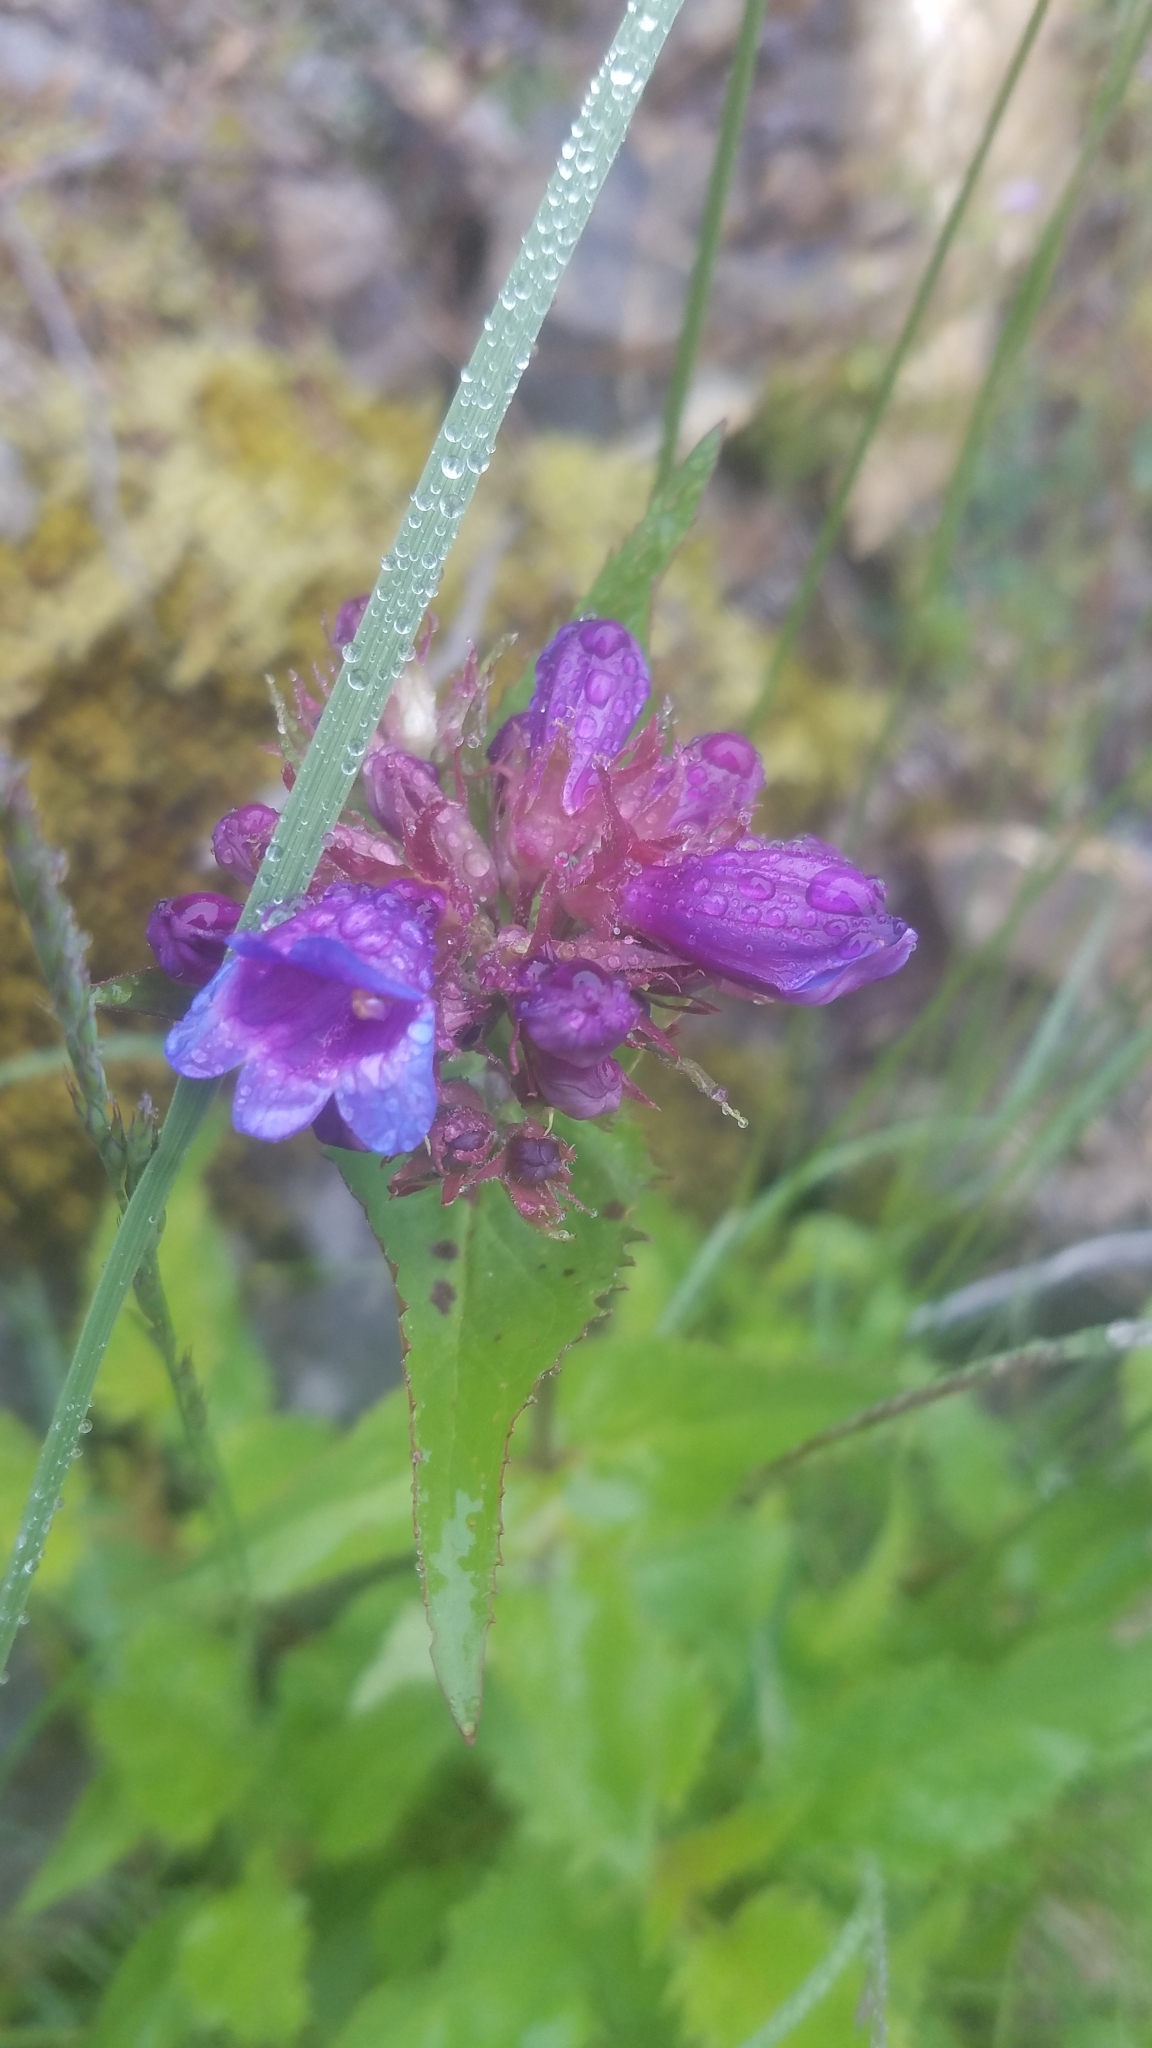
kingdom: Plantae
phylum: Tracheophyta
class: Magnoliopsida
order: Lamiales
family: Plantaginaceae
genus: Penstemon
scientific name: Penstemon serrulatus
